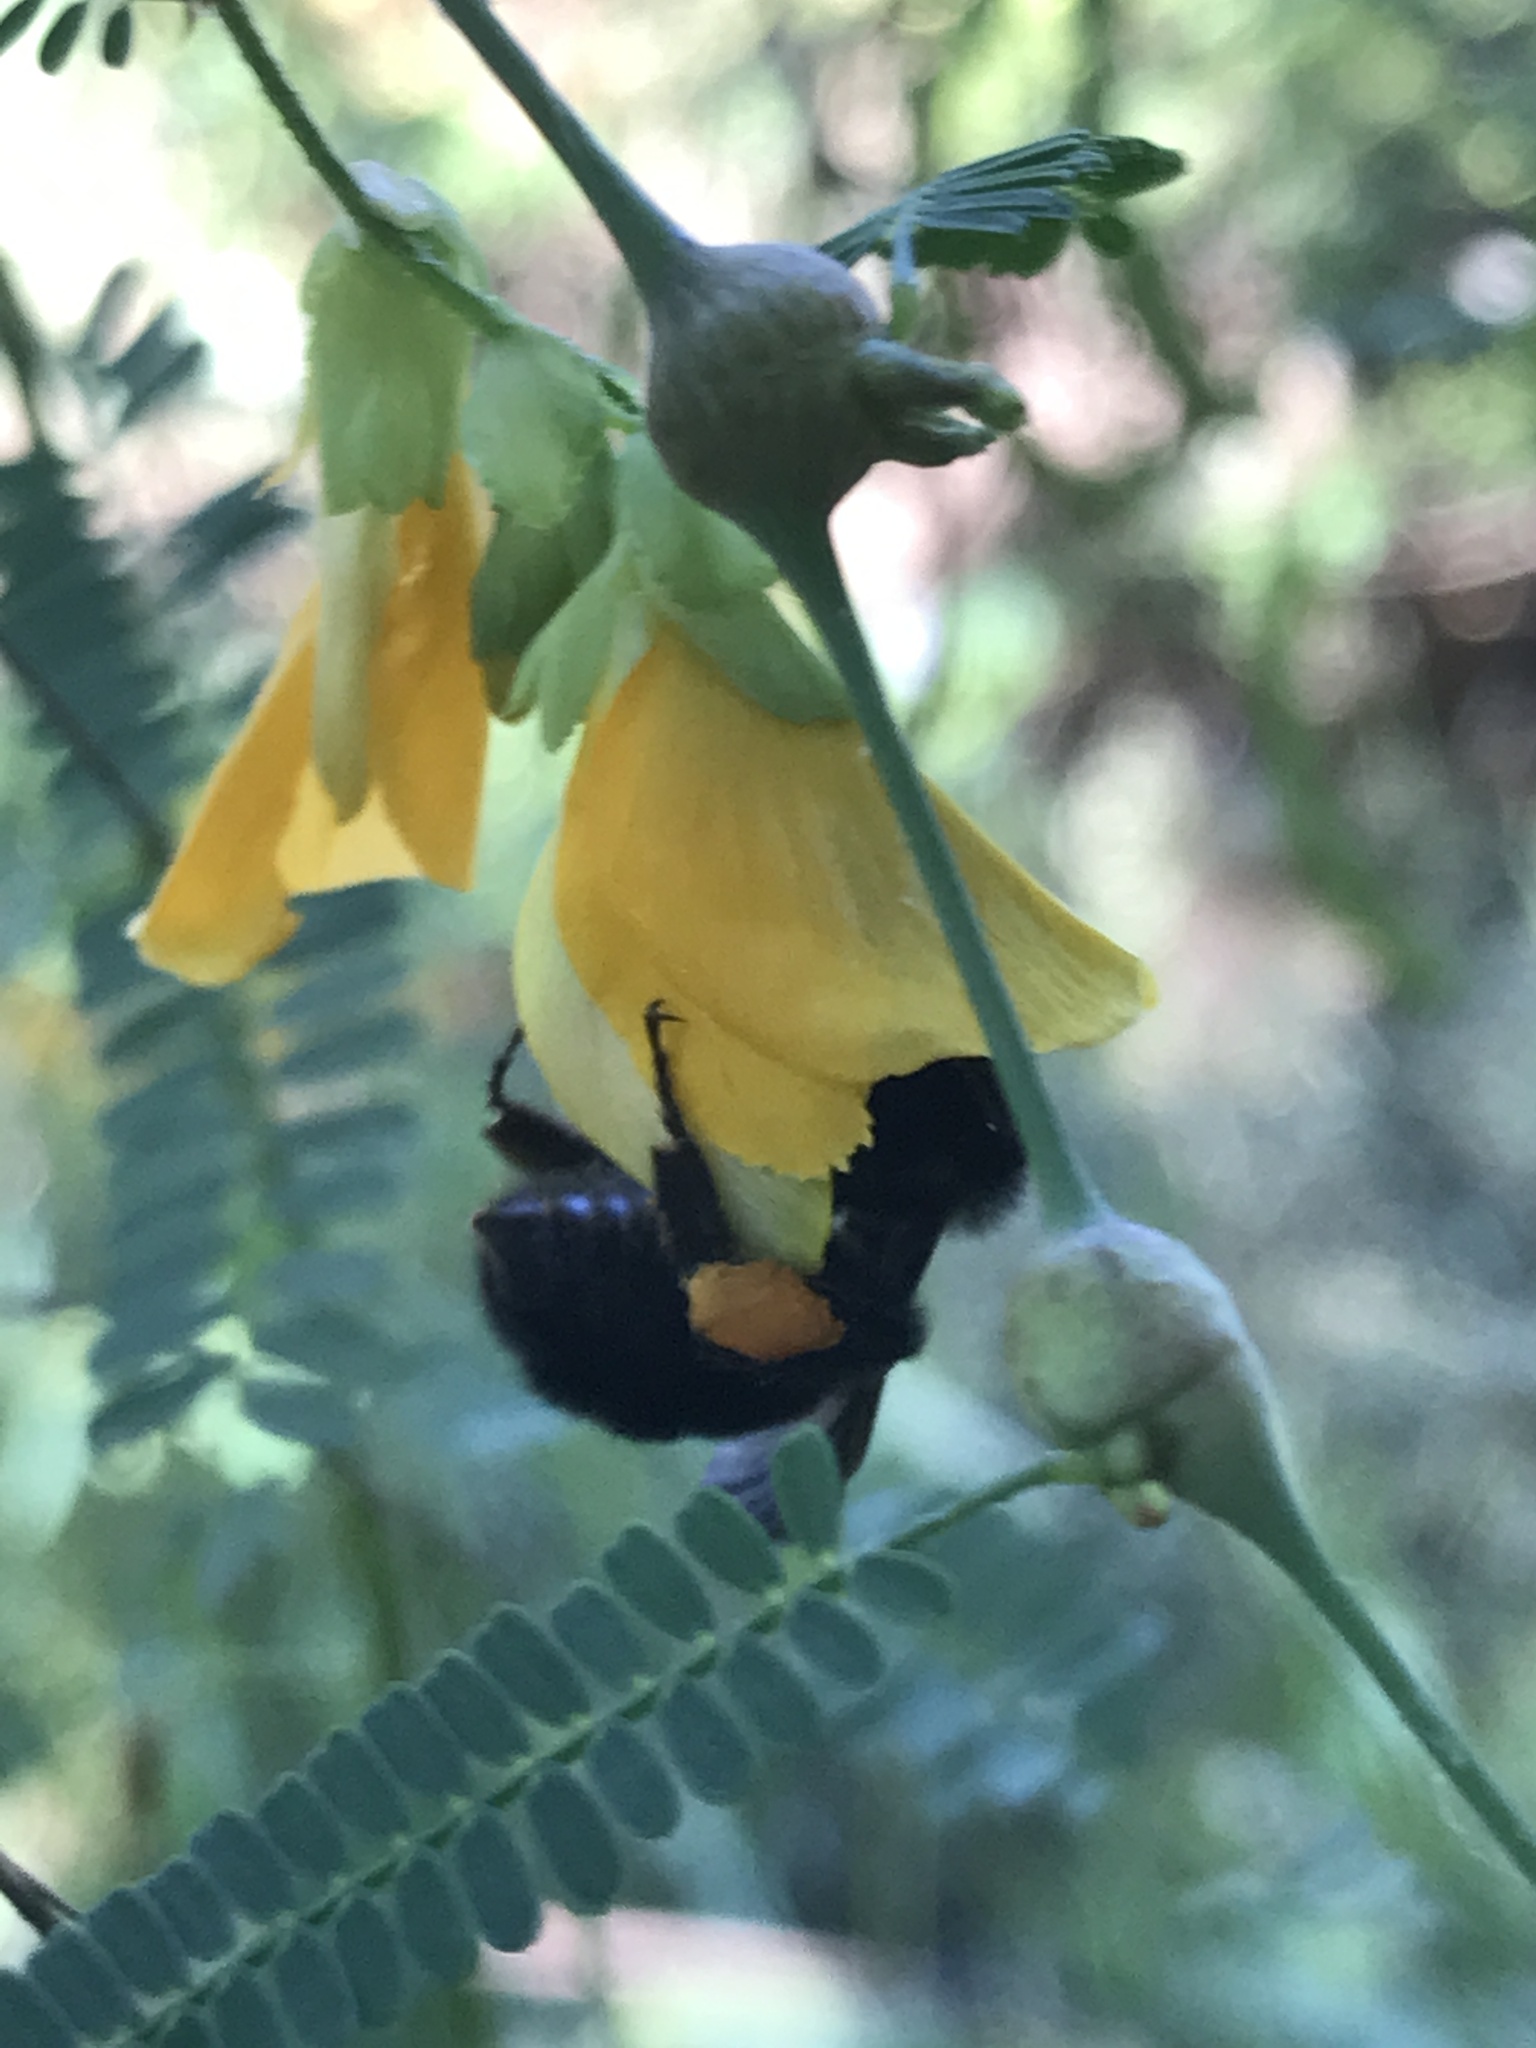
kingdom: Animalia
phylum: Arthropoda
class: Insecta
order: Hymenoptera
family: Apidae
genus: Bombus
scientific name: Bombus pauloensis
